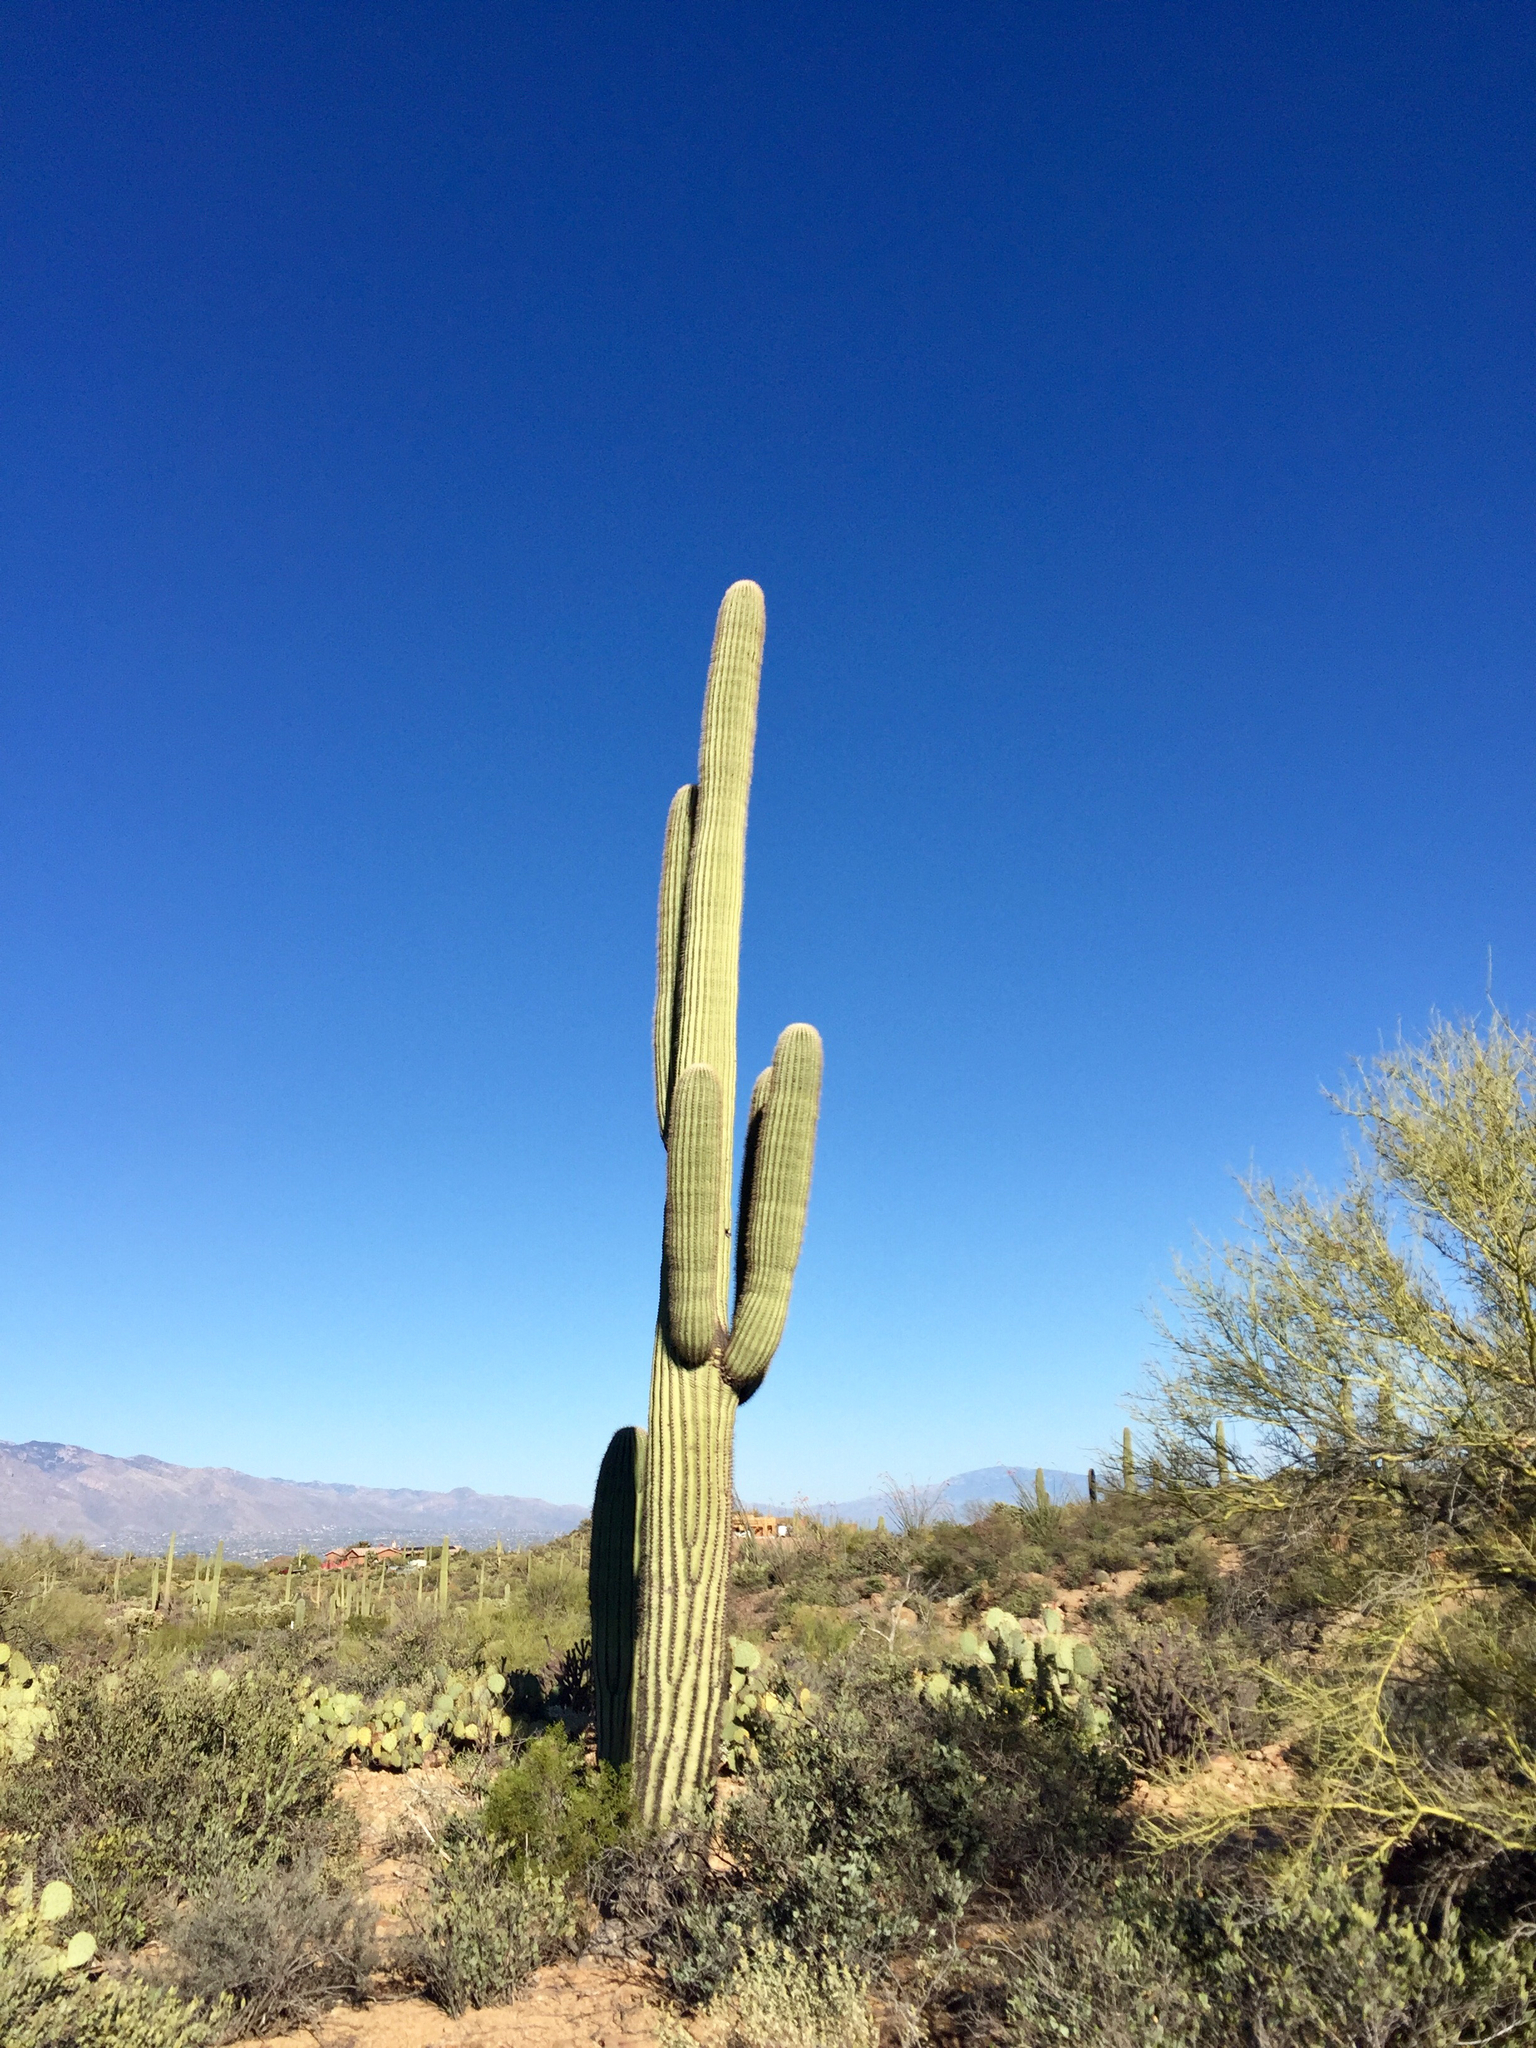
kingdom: Plantae
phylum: Tracheophyta
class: Magnoliopsida
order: Caryophyllales
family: Cactaceae
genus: Carnegiea
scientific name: Carnegiea gigantea
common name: Saguaro
